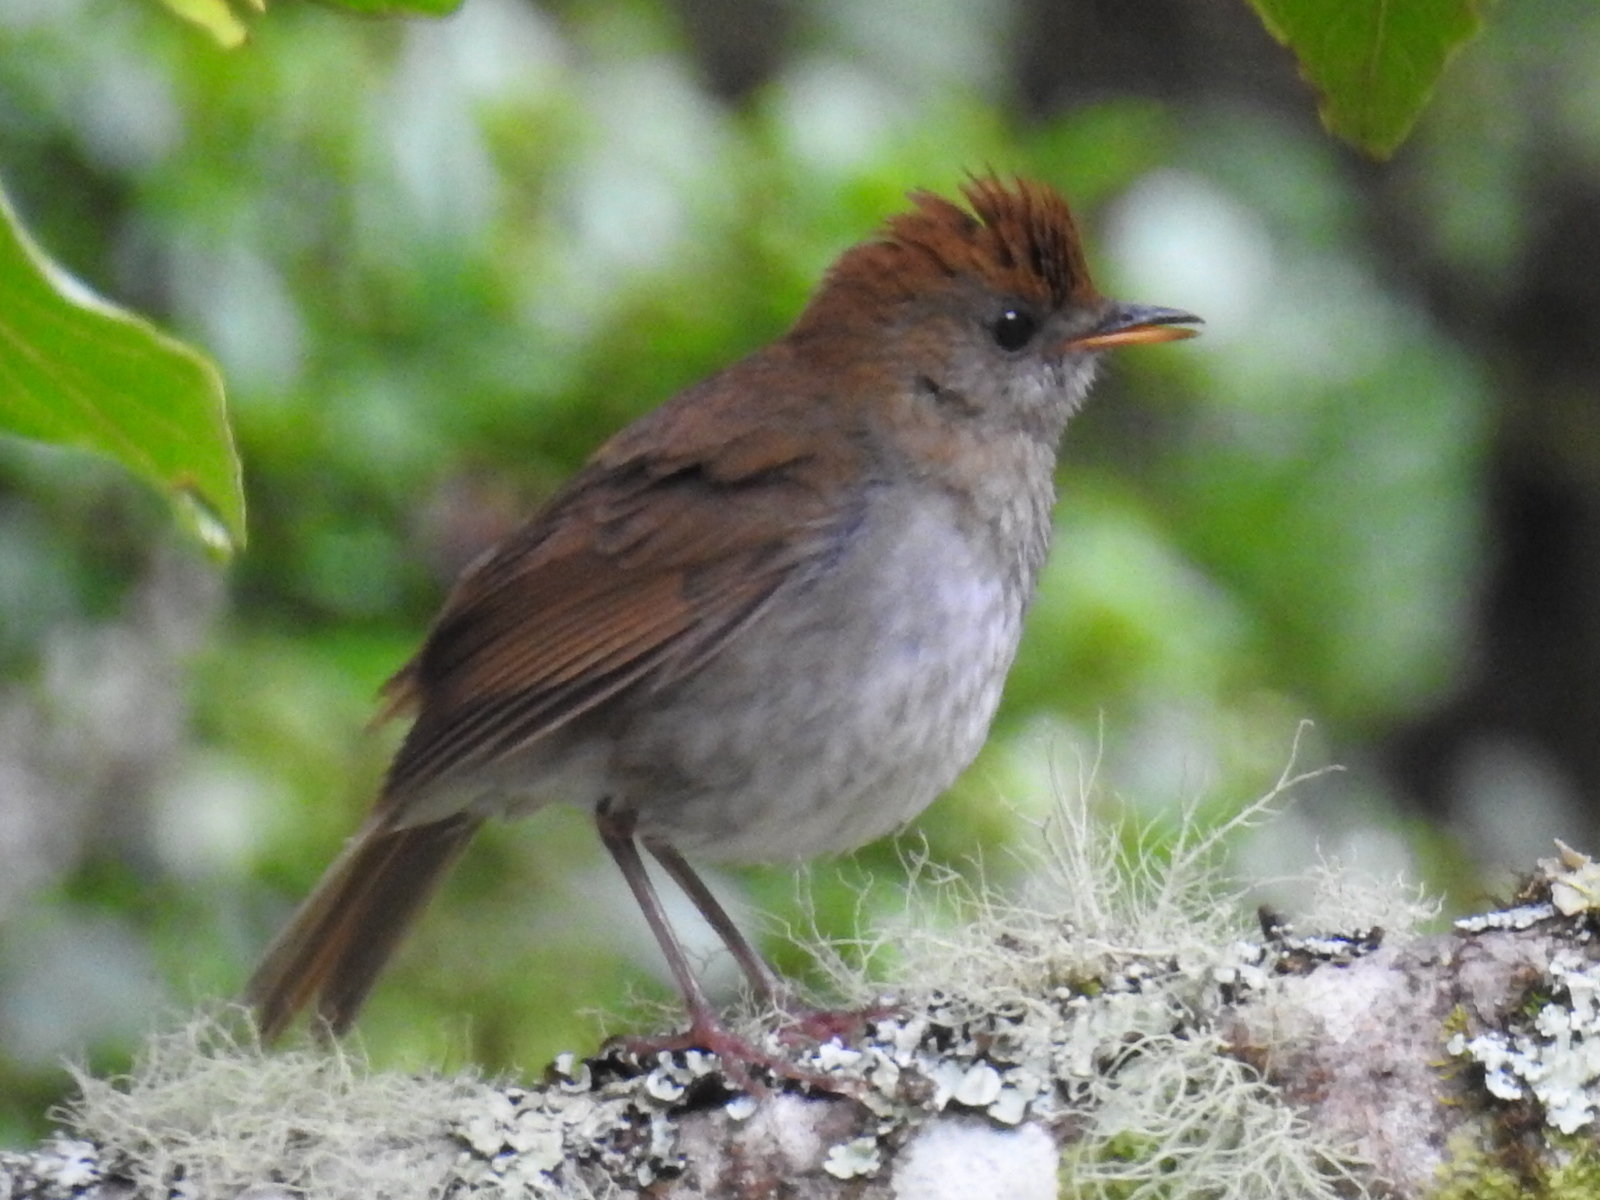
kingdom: Animalia
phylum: Chordata
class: Aves
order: Passeriformes
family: Turdidae
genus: Catharus
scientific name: Catharus frantzii
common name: Ruddy-capped nightingale-thrush
